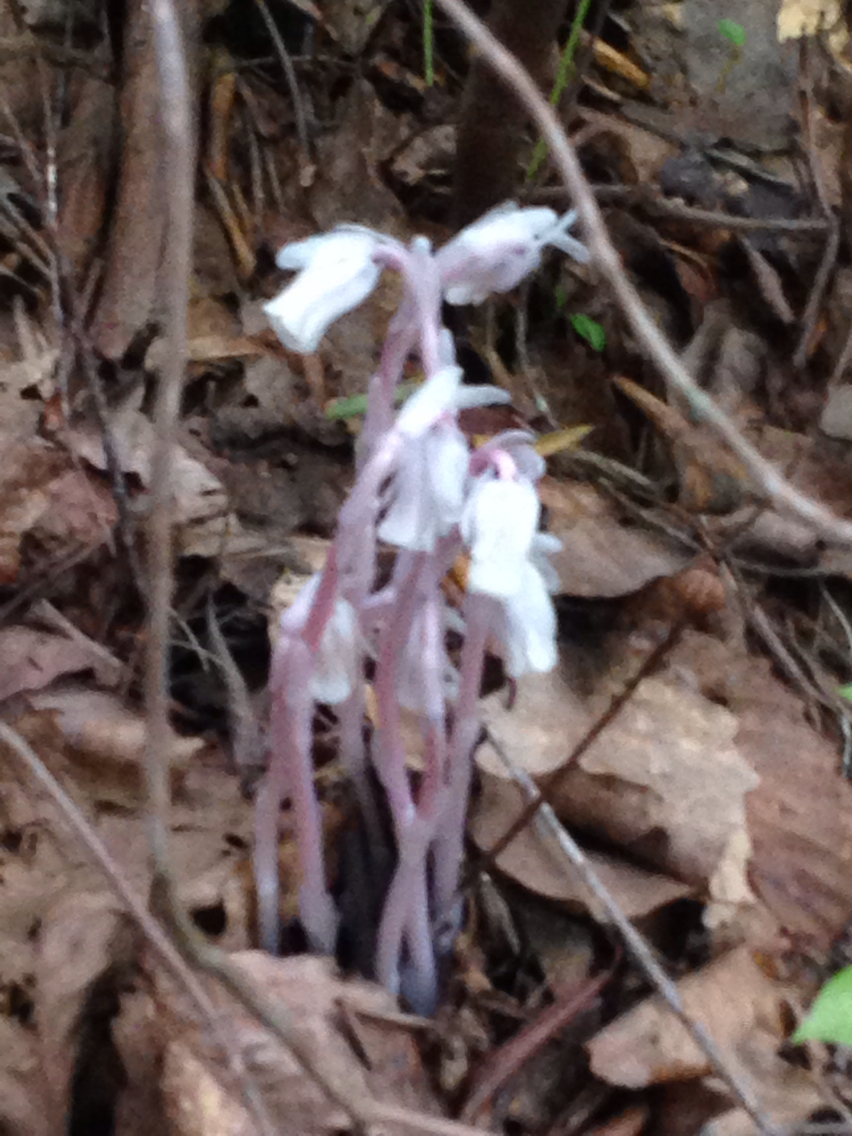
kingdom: Plantae
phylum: Tracheophyta
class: Magnoliopsida
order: Ericales
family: Ericaceae
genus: Monotropa
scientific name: Monotropa uniflora
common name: Convulsion root
